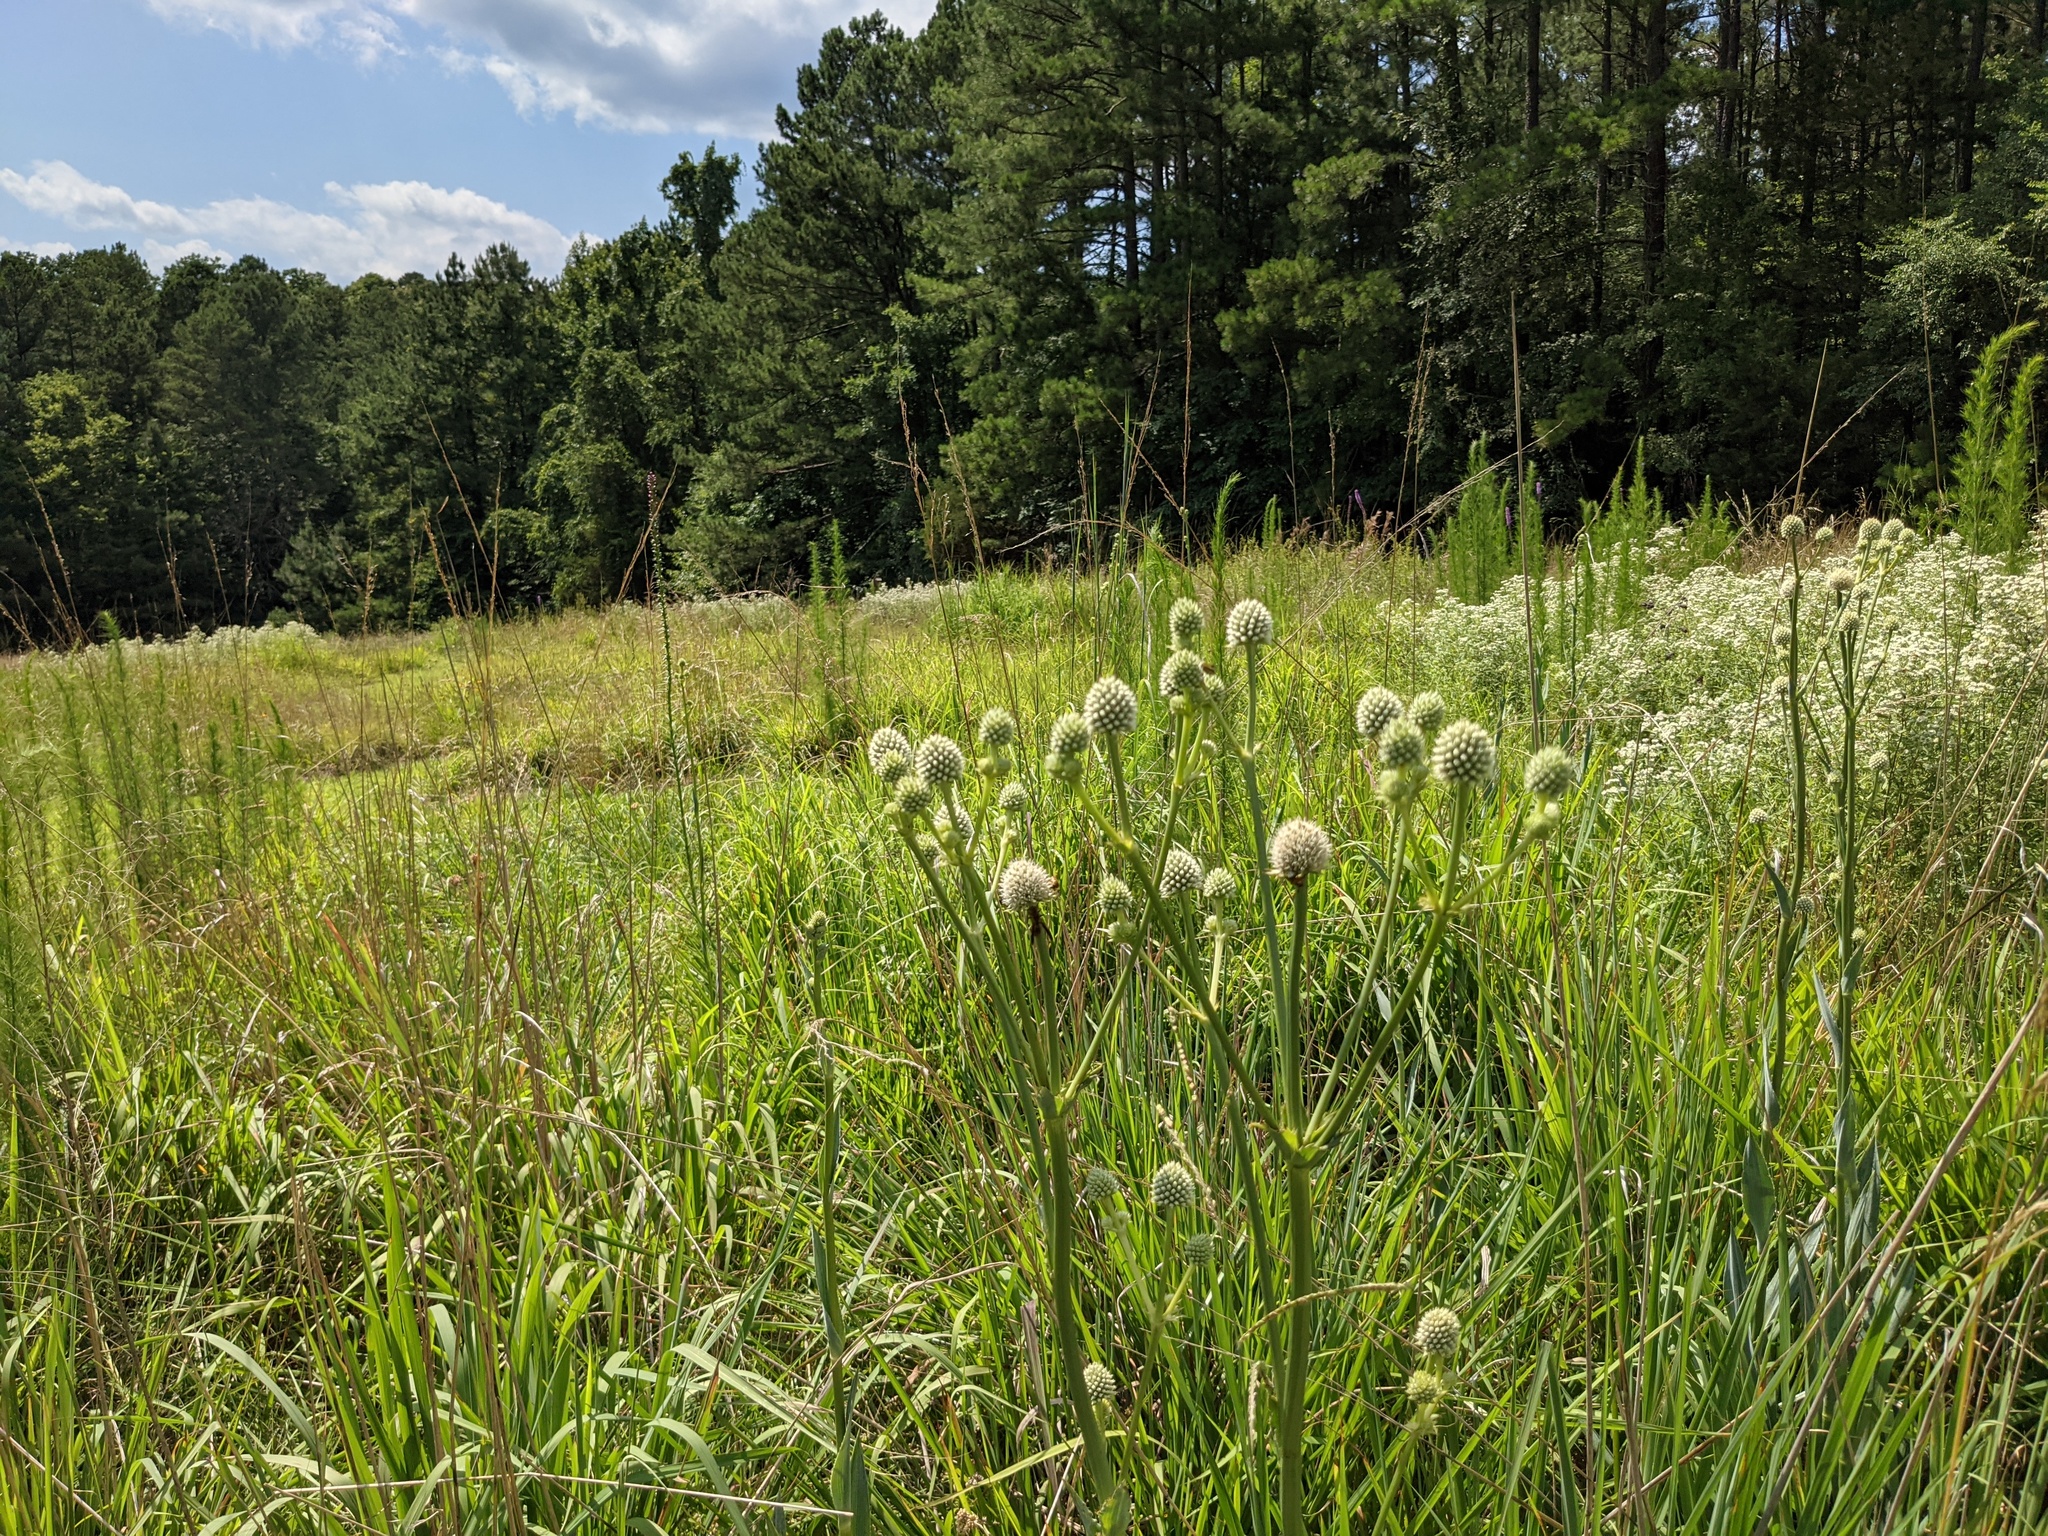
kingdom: Plantae
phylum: Tracheophyta
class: Magnoliopsida
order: Apiales
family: Apiaceae
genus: Eryngium
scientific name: Eryngium yuccifolium
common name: Button eryngo
